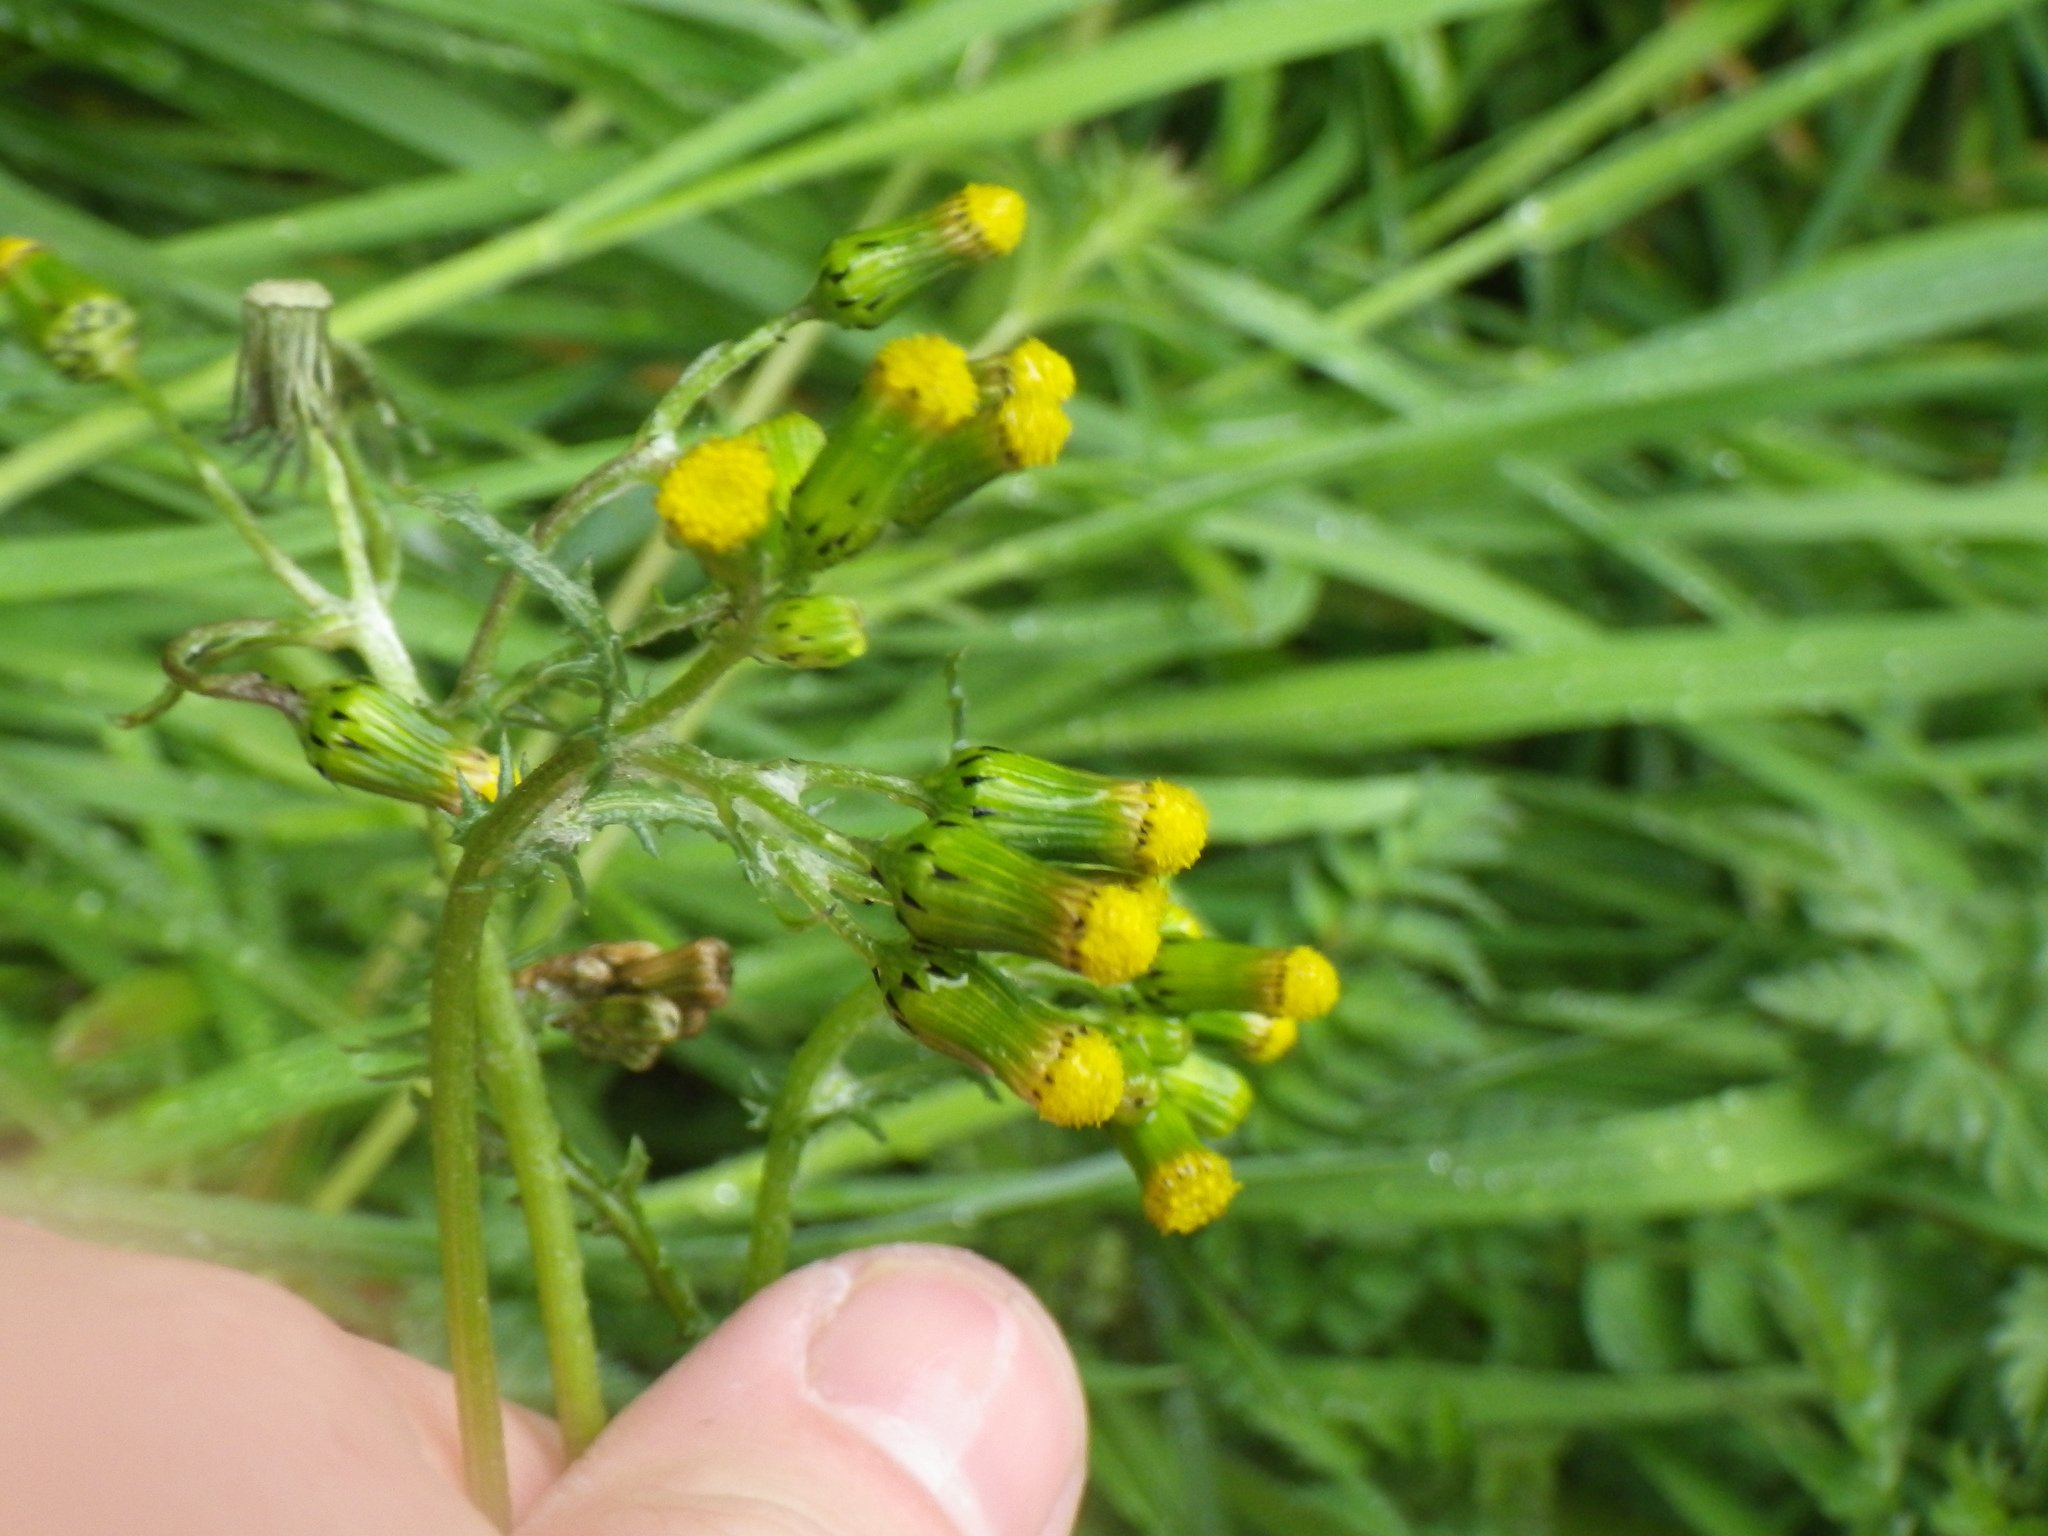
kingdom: Plantae
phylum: Tracheophyta
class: Magnoliopsida
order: Asterales
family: Asteraceae
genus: Senecio
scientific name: Senecio vulgaris
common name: Old-man-in-the-spring
